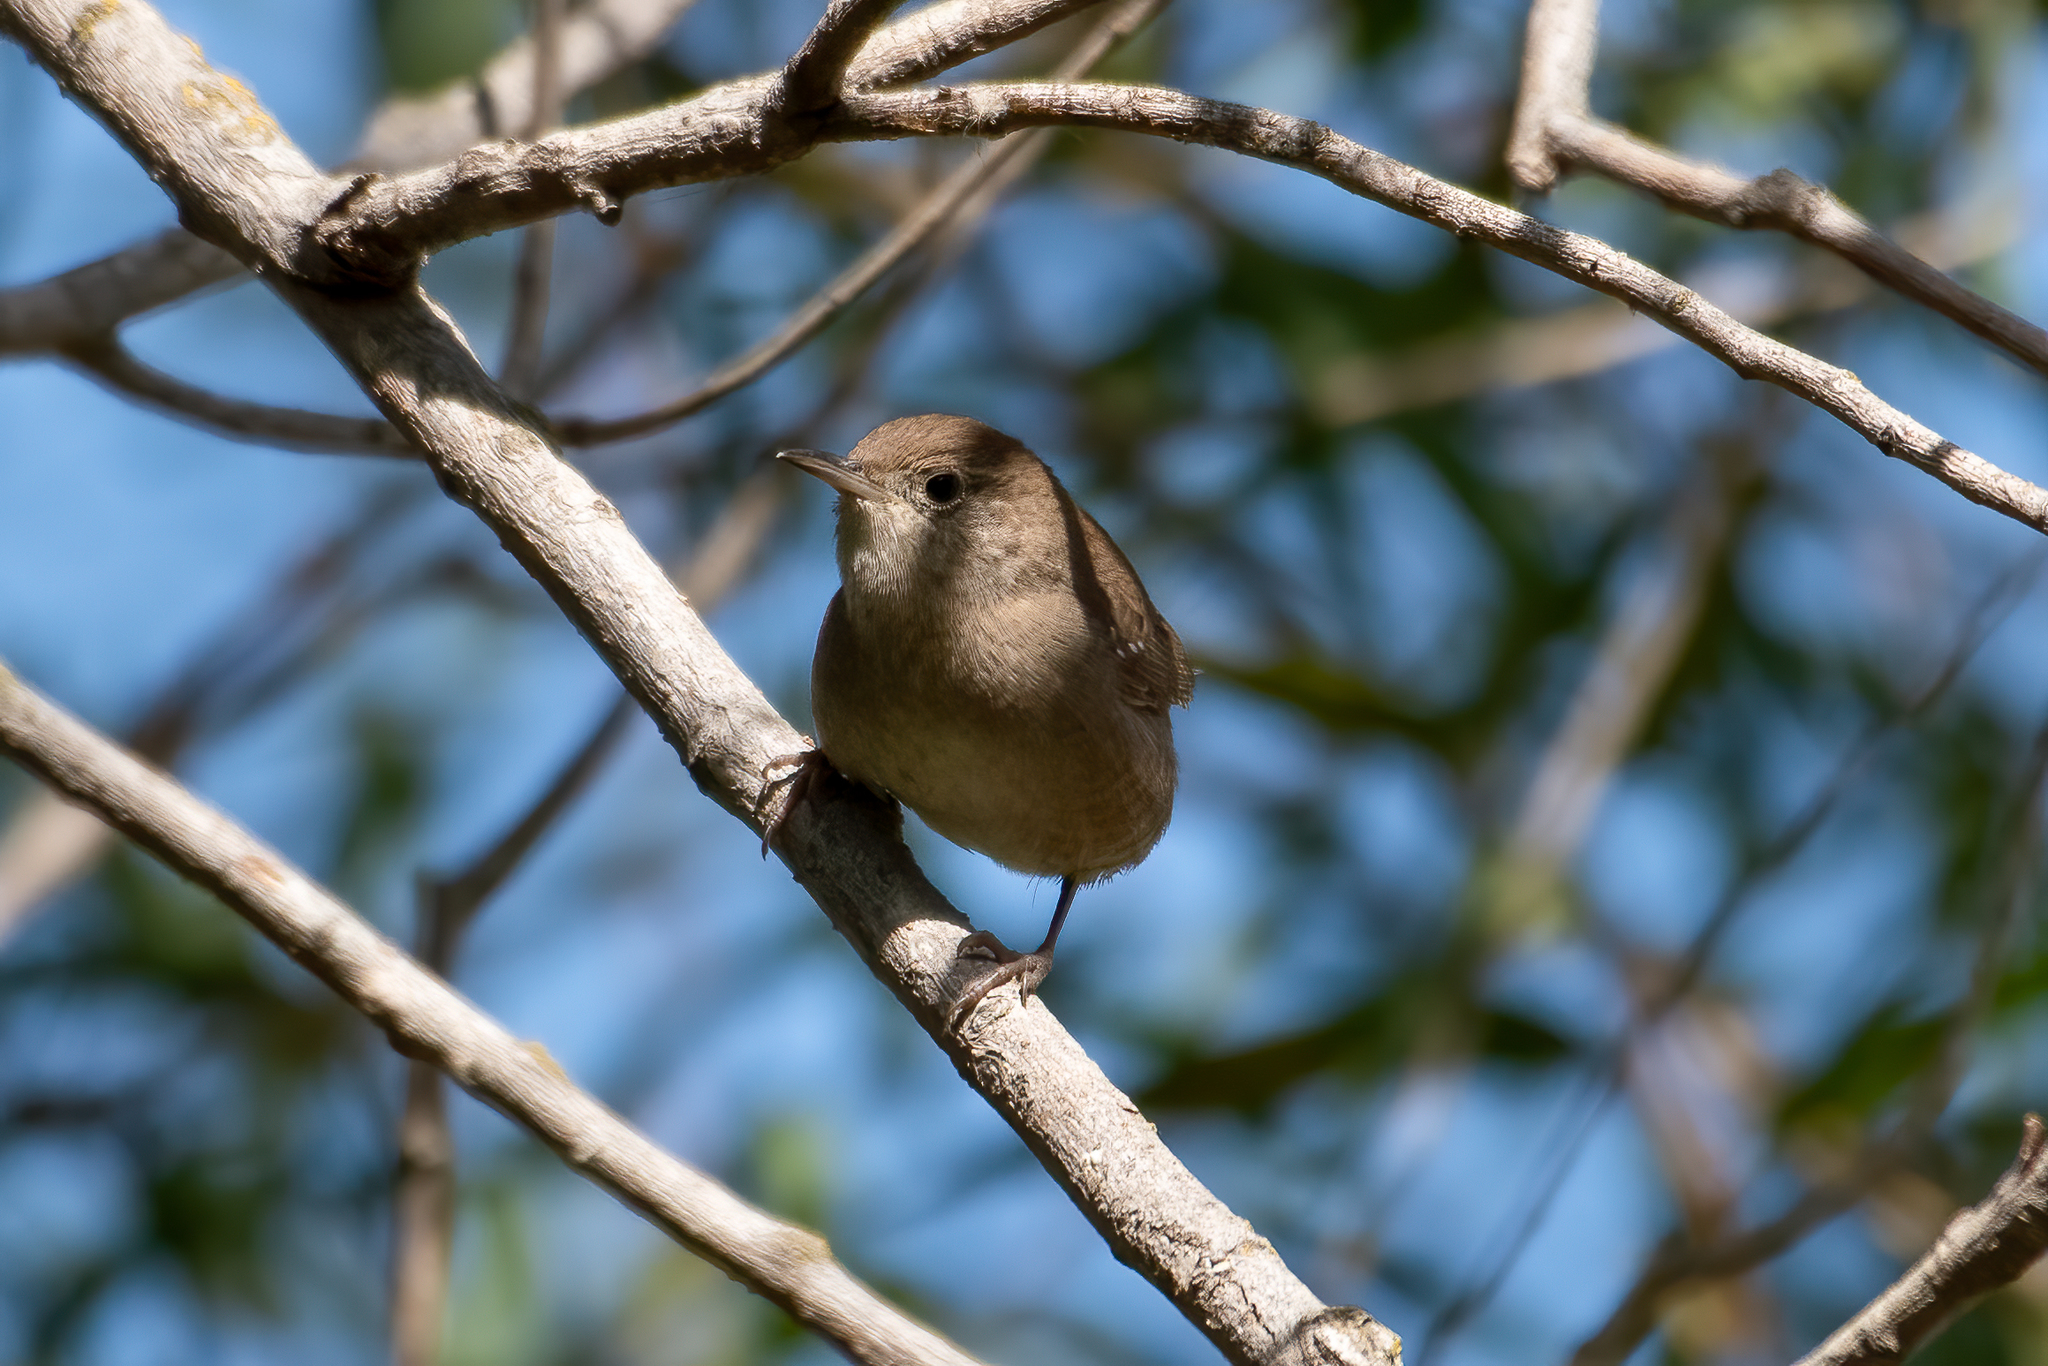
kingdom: Animalia
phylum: Chordata
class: Aves
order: Passeriformes
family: Troglodytidae
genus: Troglodytes
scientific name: Troglodytes aedon
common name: House wren
